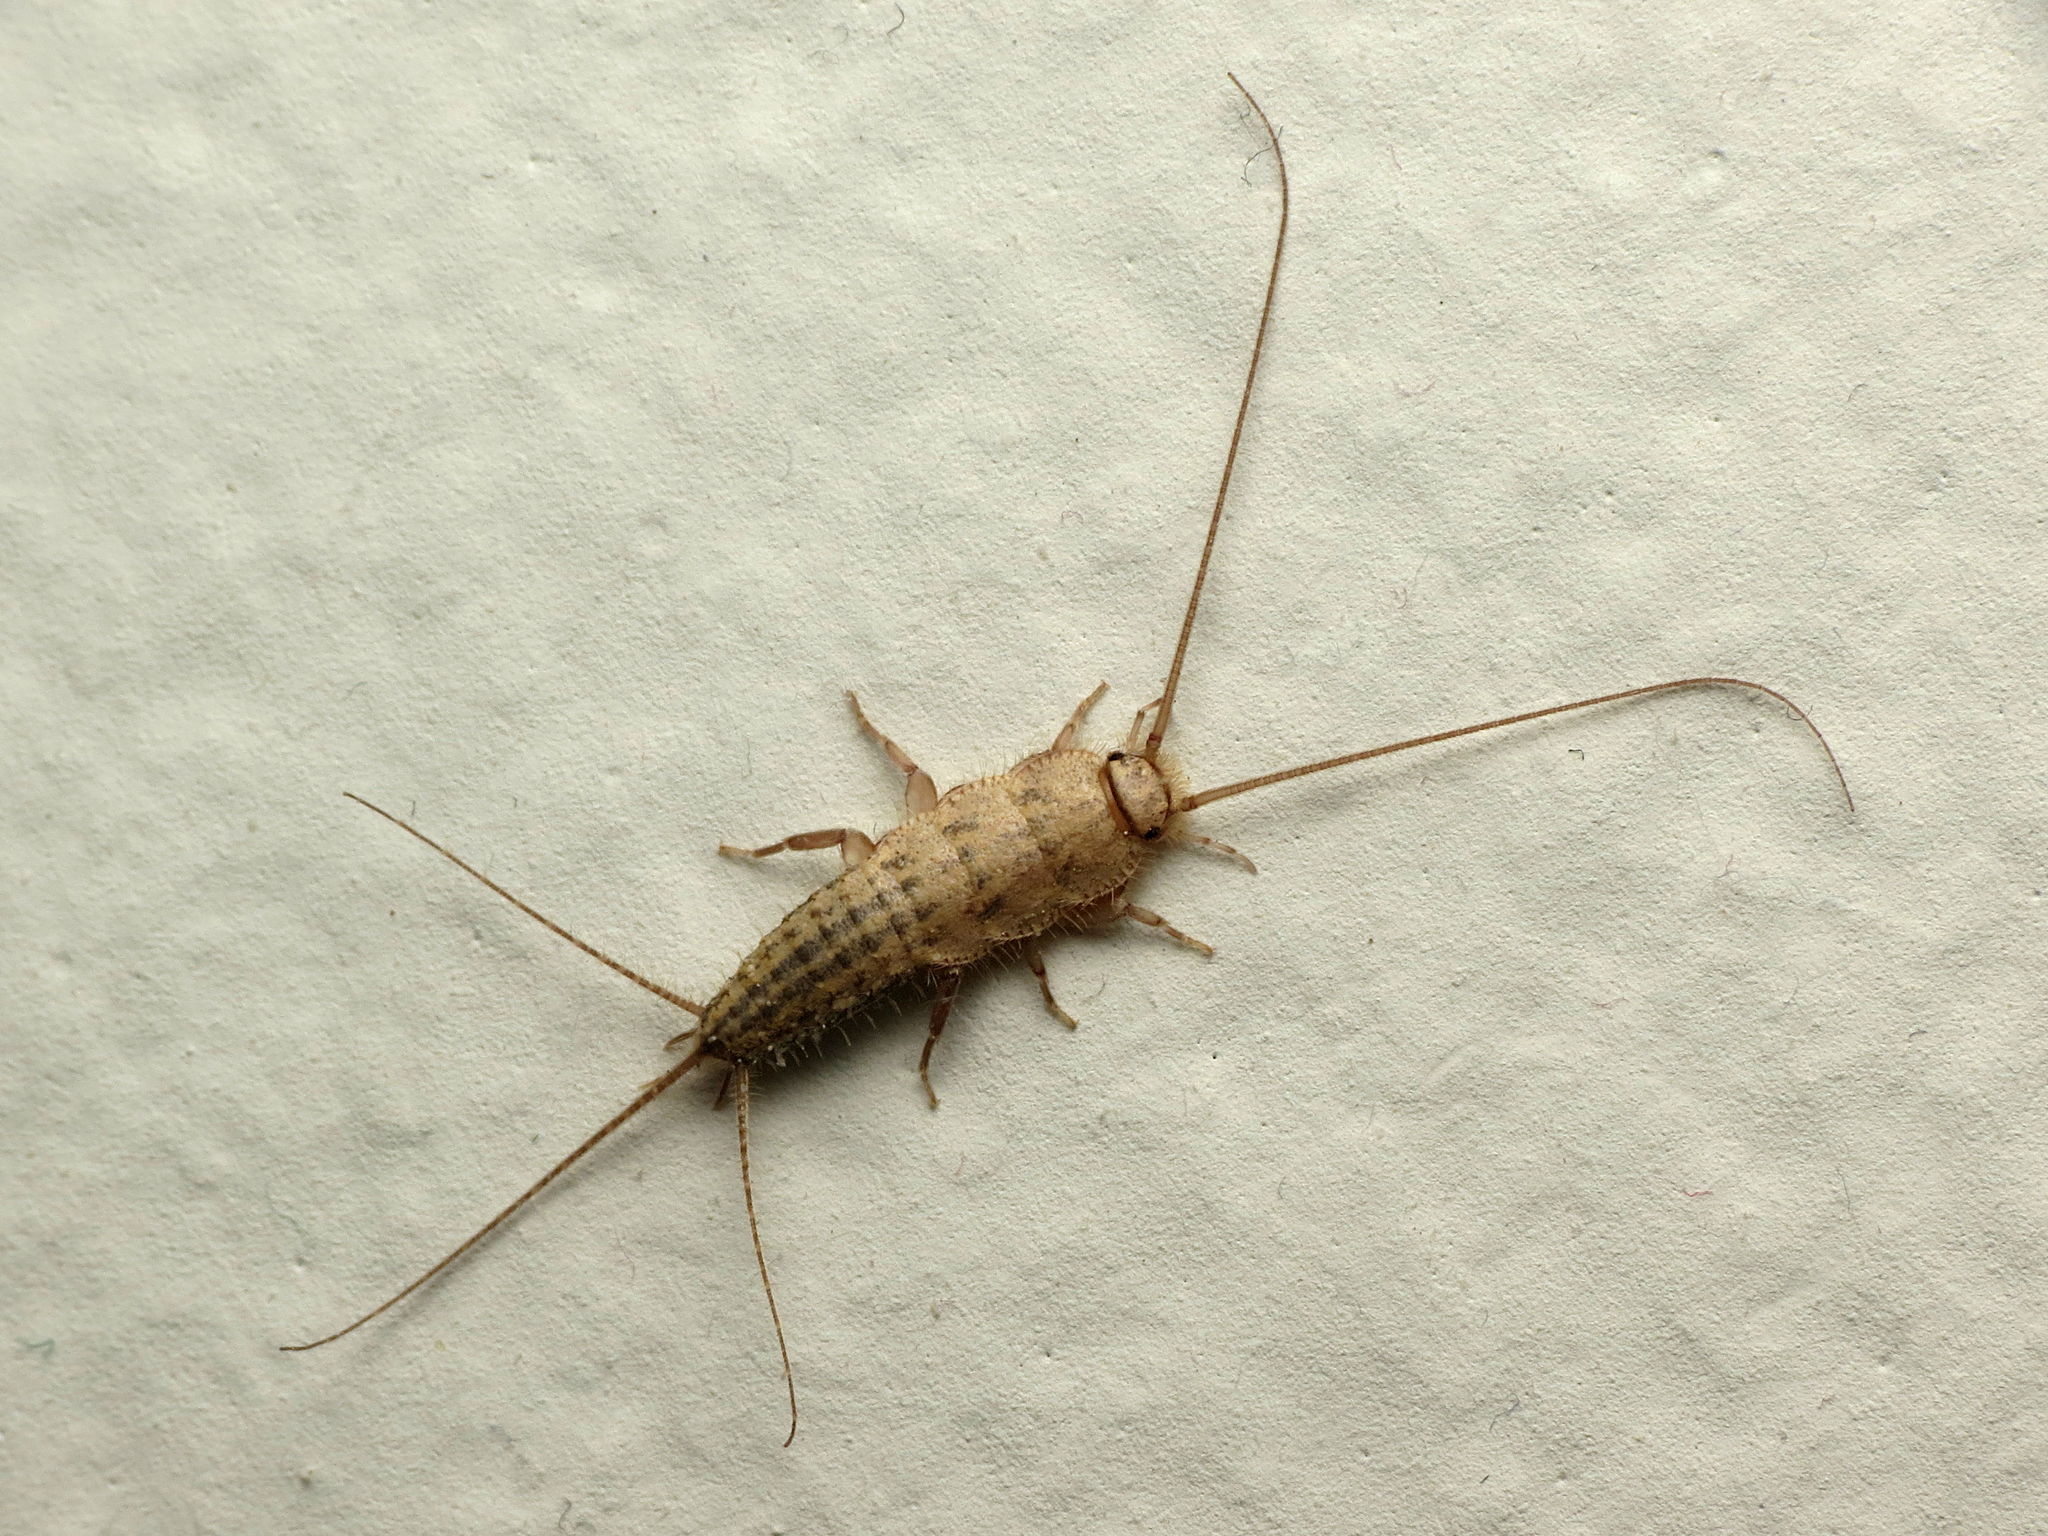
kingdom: Animalia
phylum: Arthropoda
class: Insecta
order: Zygentoma
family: Lepismatidae
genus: Ctenolepisma
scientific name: Ctenolepisma lineata
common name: Four-lined silverfish
